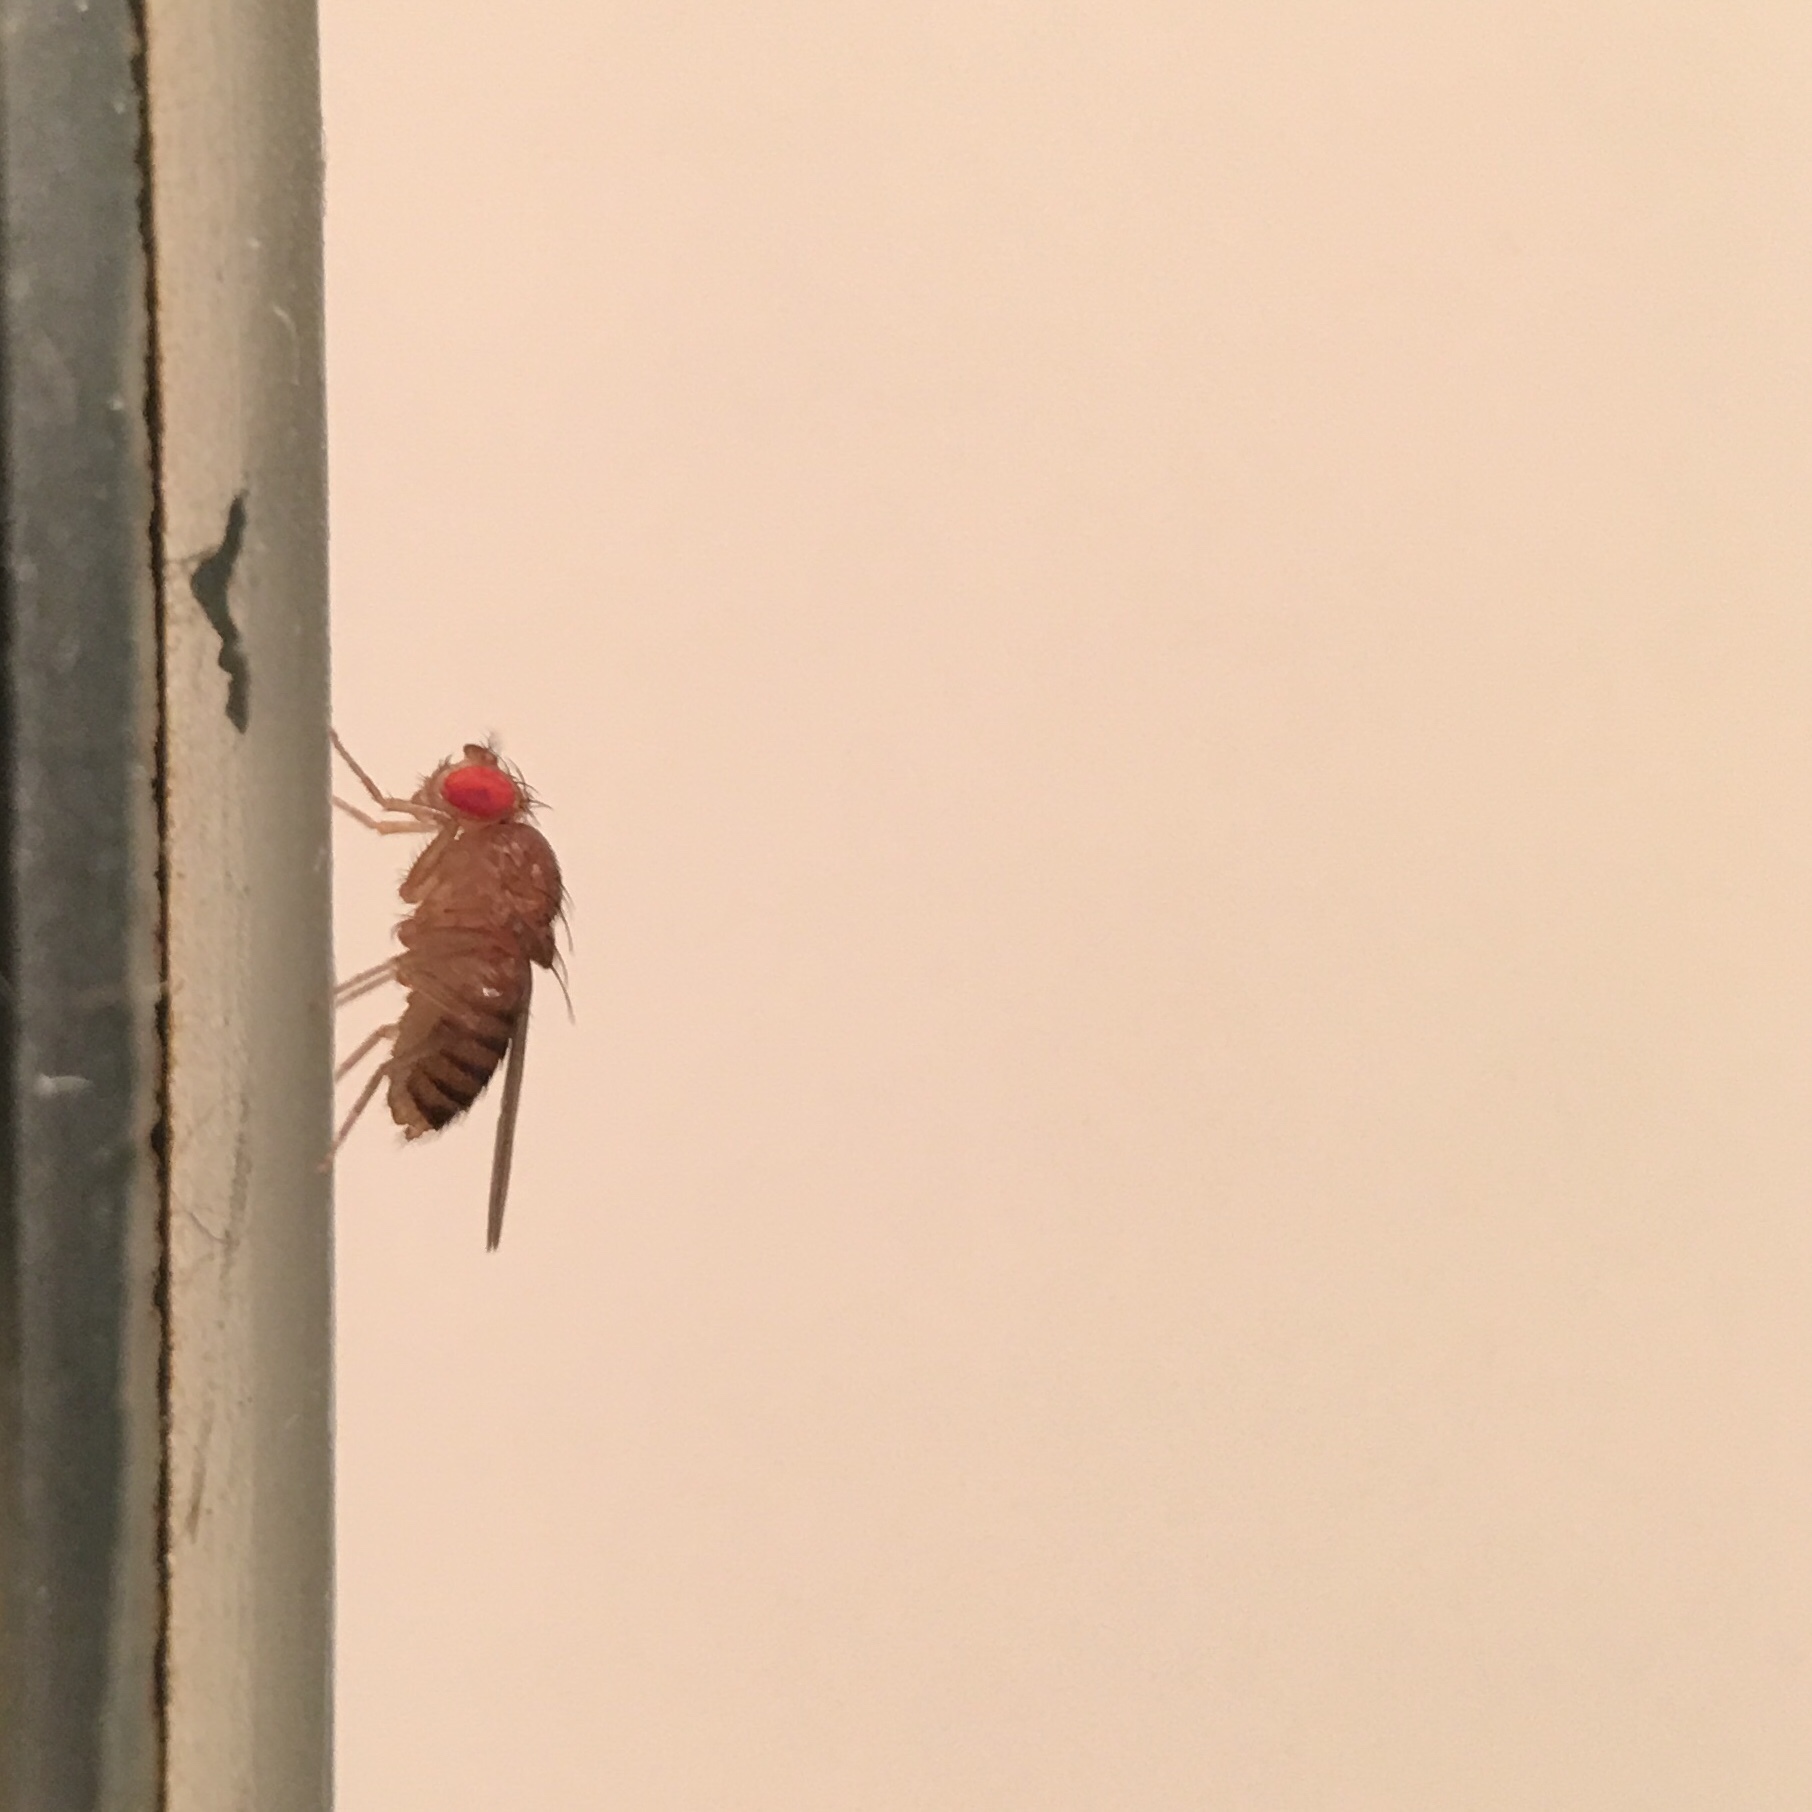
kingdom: Animalia
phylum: Arthropoda
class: Insecta
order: Diptera
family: Drosophilidae
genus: Drosophila
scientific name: Drosophila melanogaster
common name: Pomace fly
